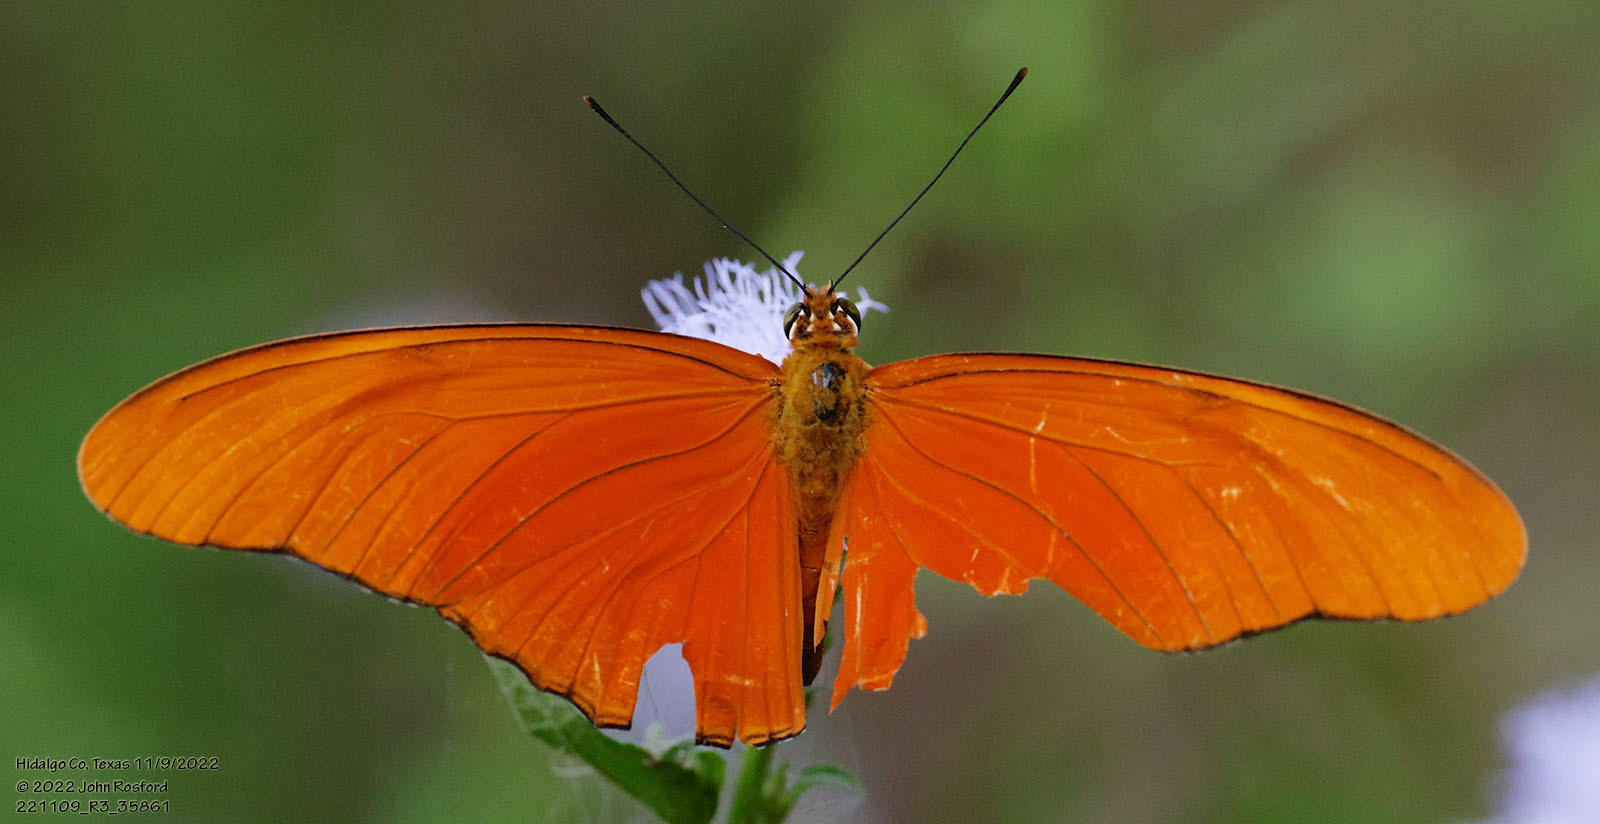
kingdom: Animalia
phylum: Arthropoda
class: Insecta
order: Lepidoptera
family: Nymphalidae
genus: Dryas
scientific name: Dryas iulia
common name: Flambeau
